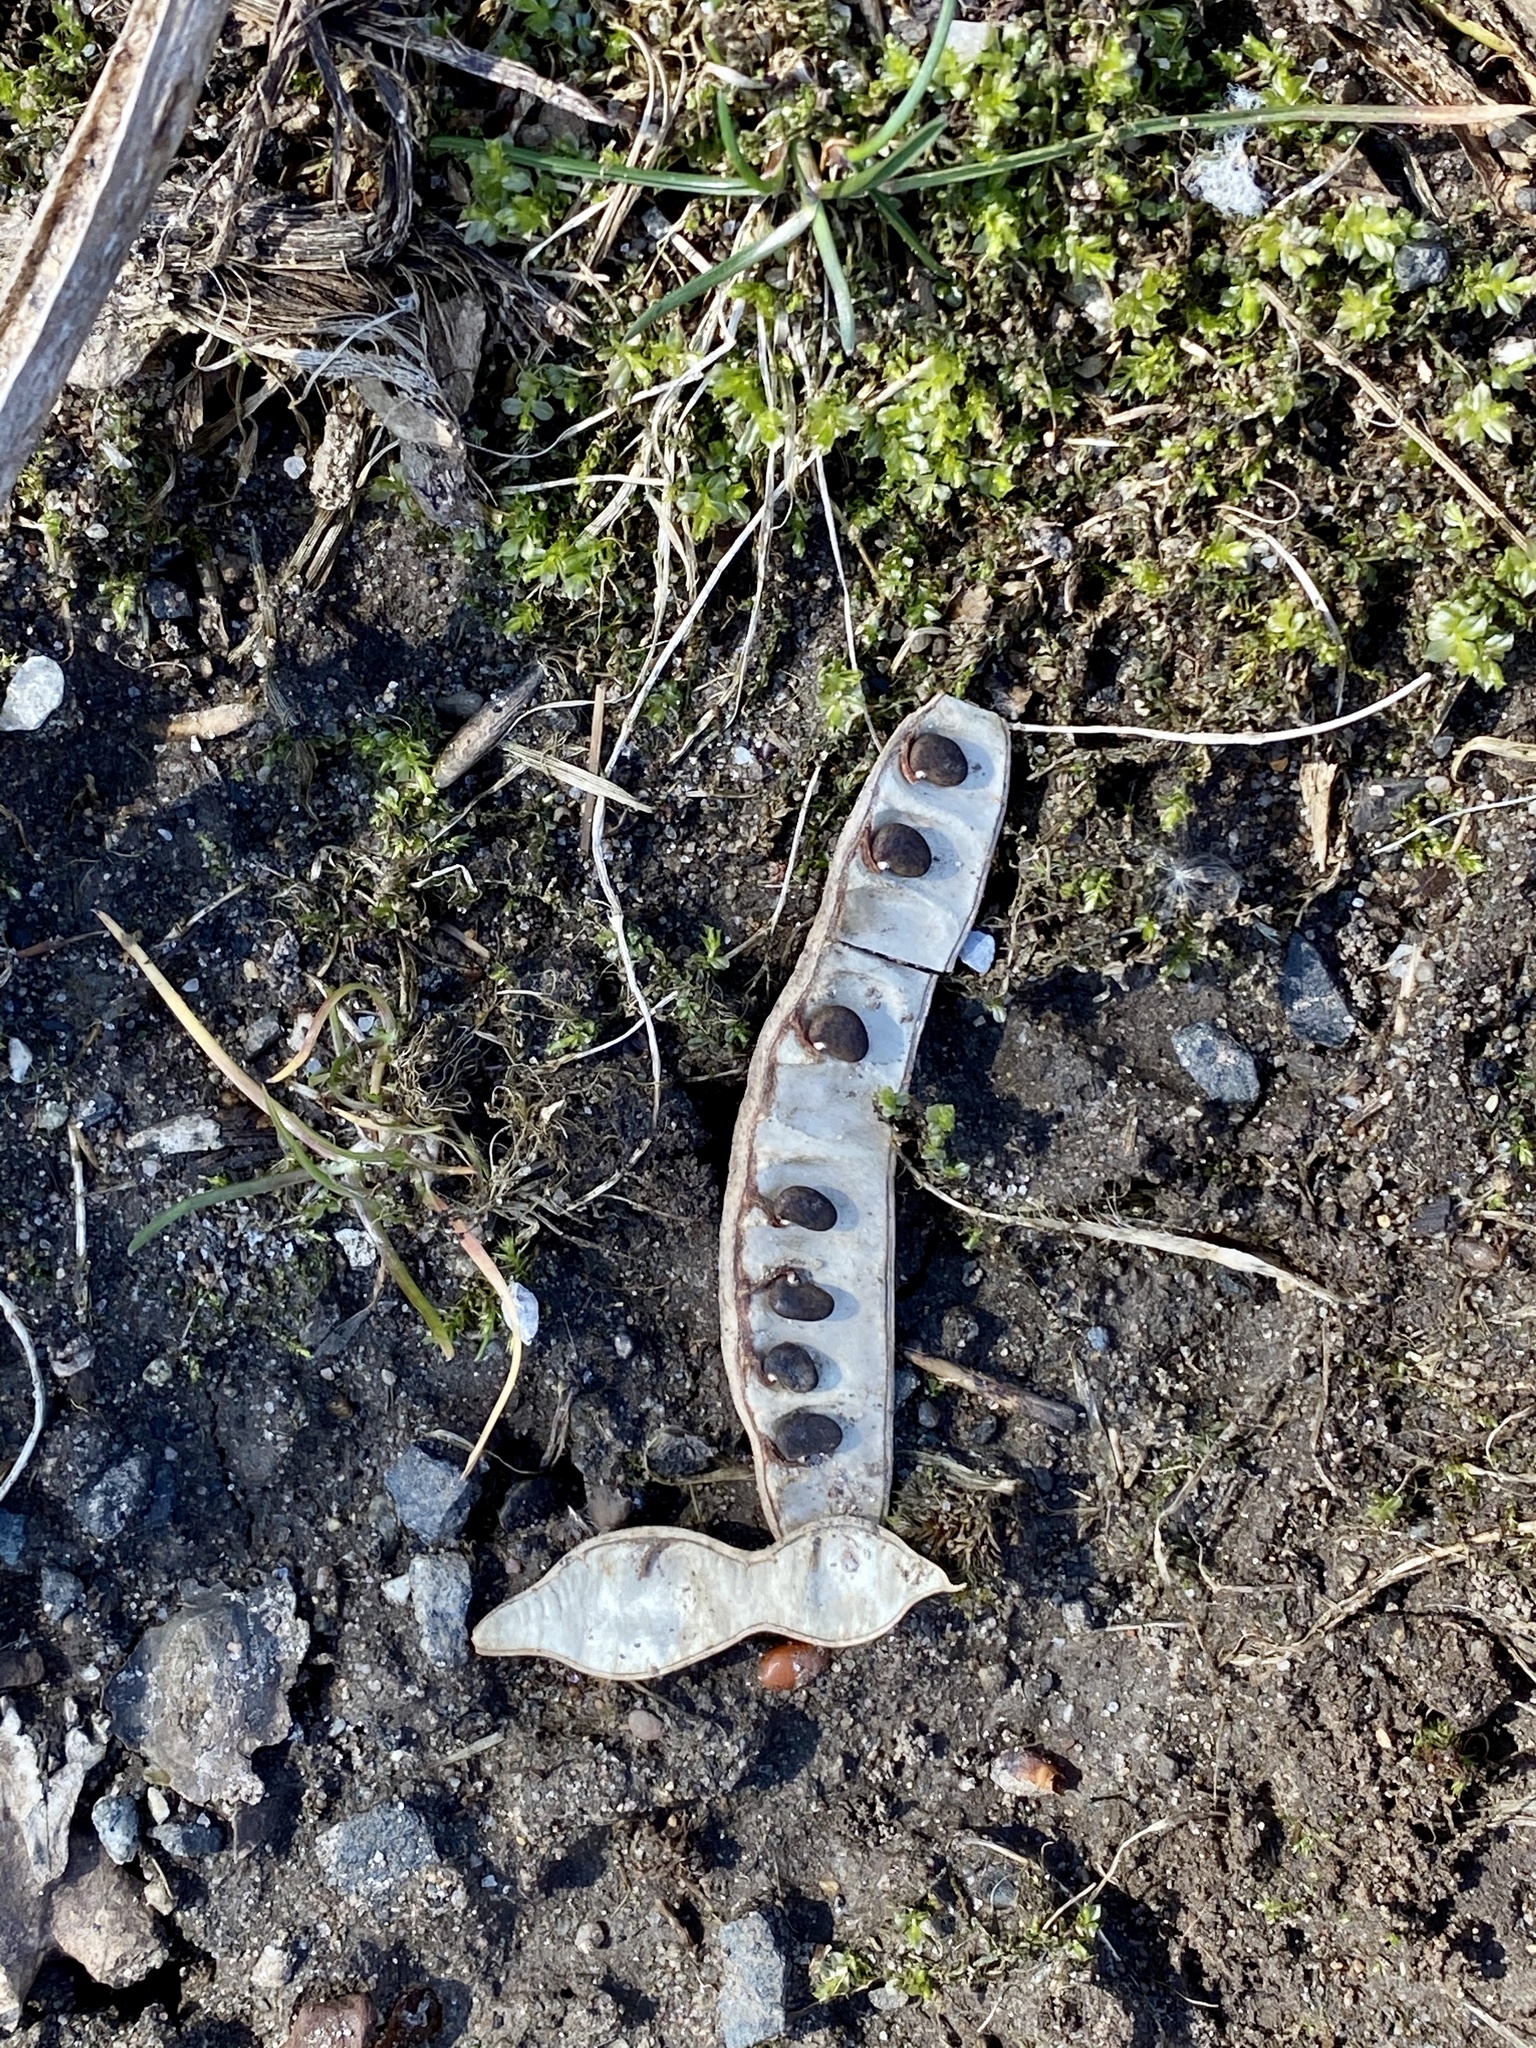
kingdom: Plantae
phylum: Tracheophyta
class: Magnoliopsida
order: Fabales
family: Fabaceae
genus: Robinia
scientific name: Robinia pseudoacacia
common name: Black locust
